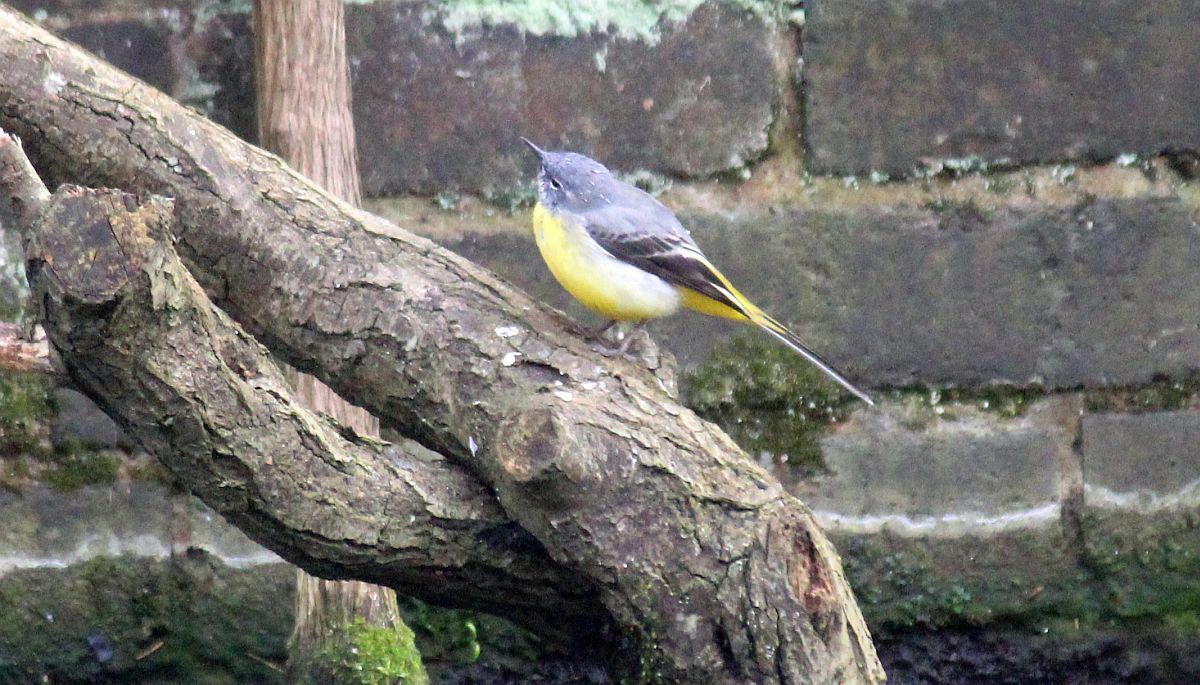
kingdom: Animalia
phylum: Chordata
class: Aves
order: Passeriformes
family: Motacillidae
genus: Motacilla
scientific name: Motacilla cinerea
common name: Grey wagtail
